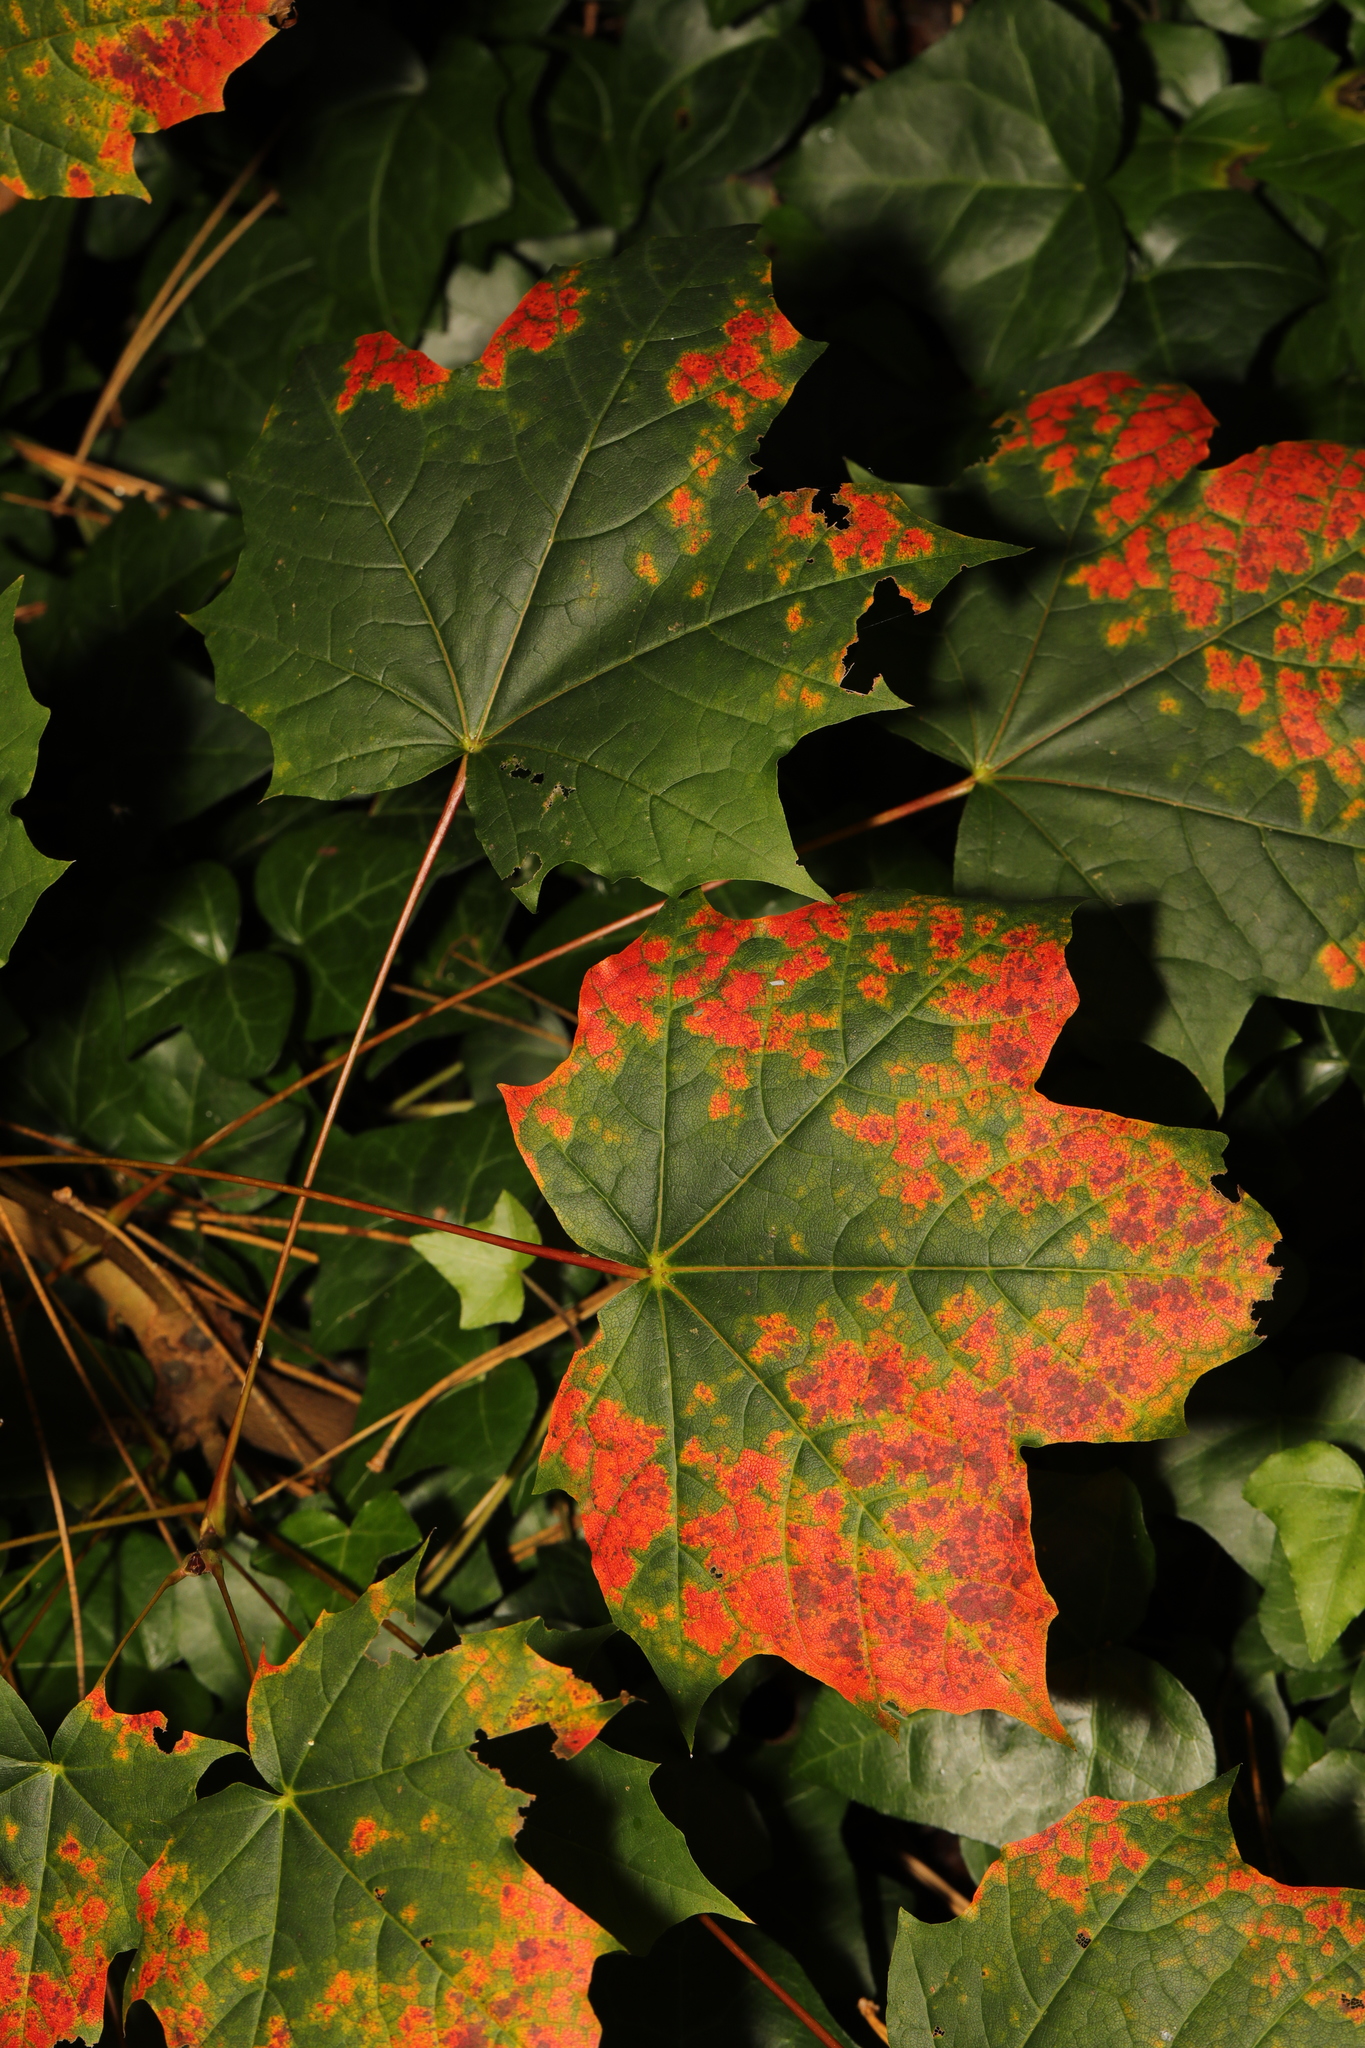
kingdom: Plantae
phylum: Tracheophyta
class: Magnoliopsida
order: Sapindales
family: Sapindaceae
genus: Acer
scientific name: Acer platanoides
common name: Norway maple
